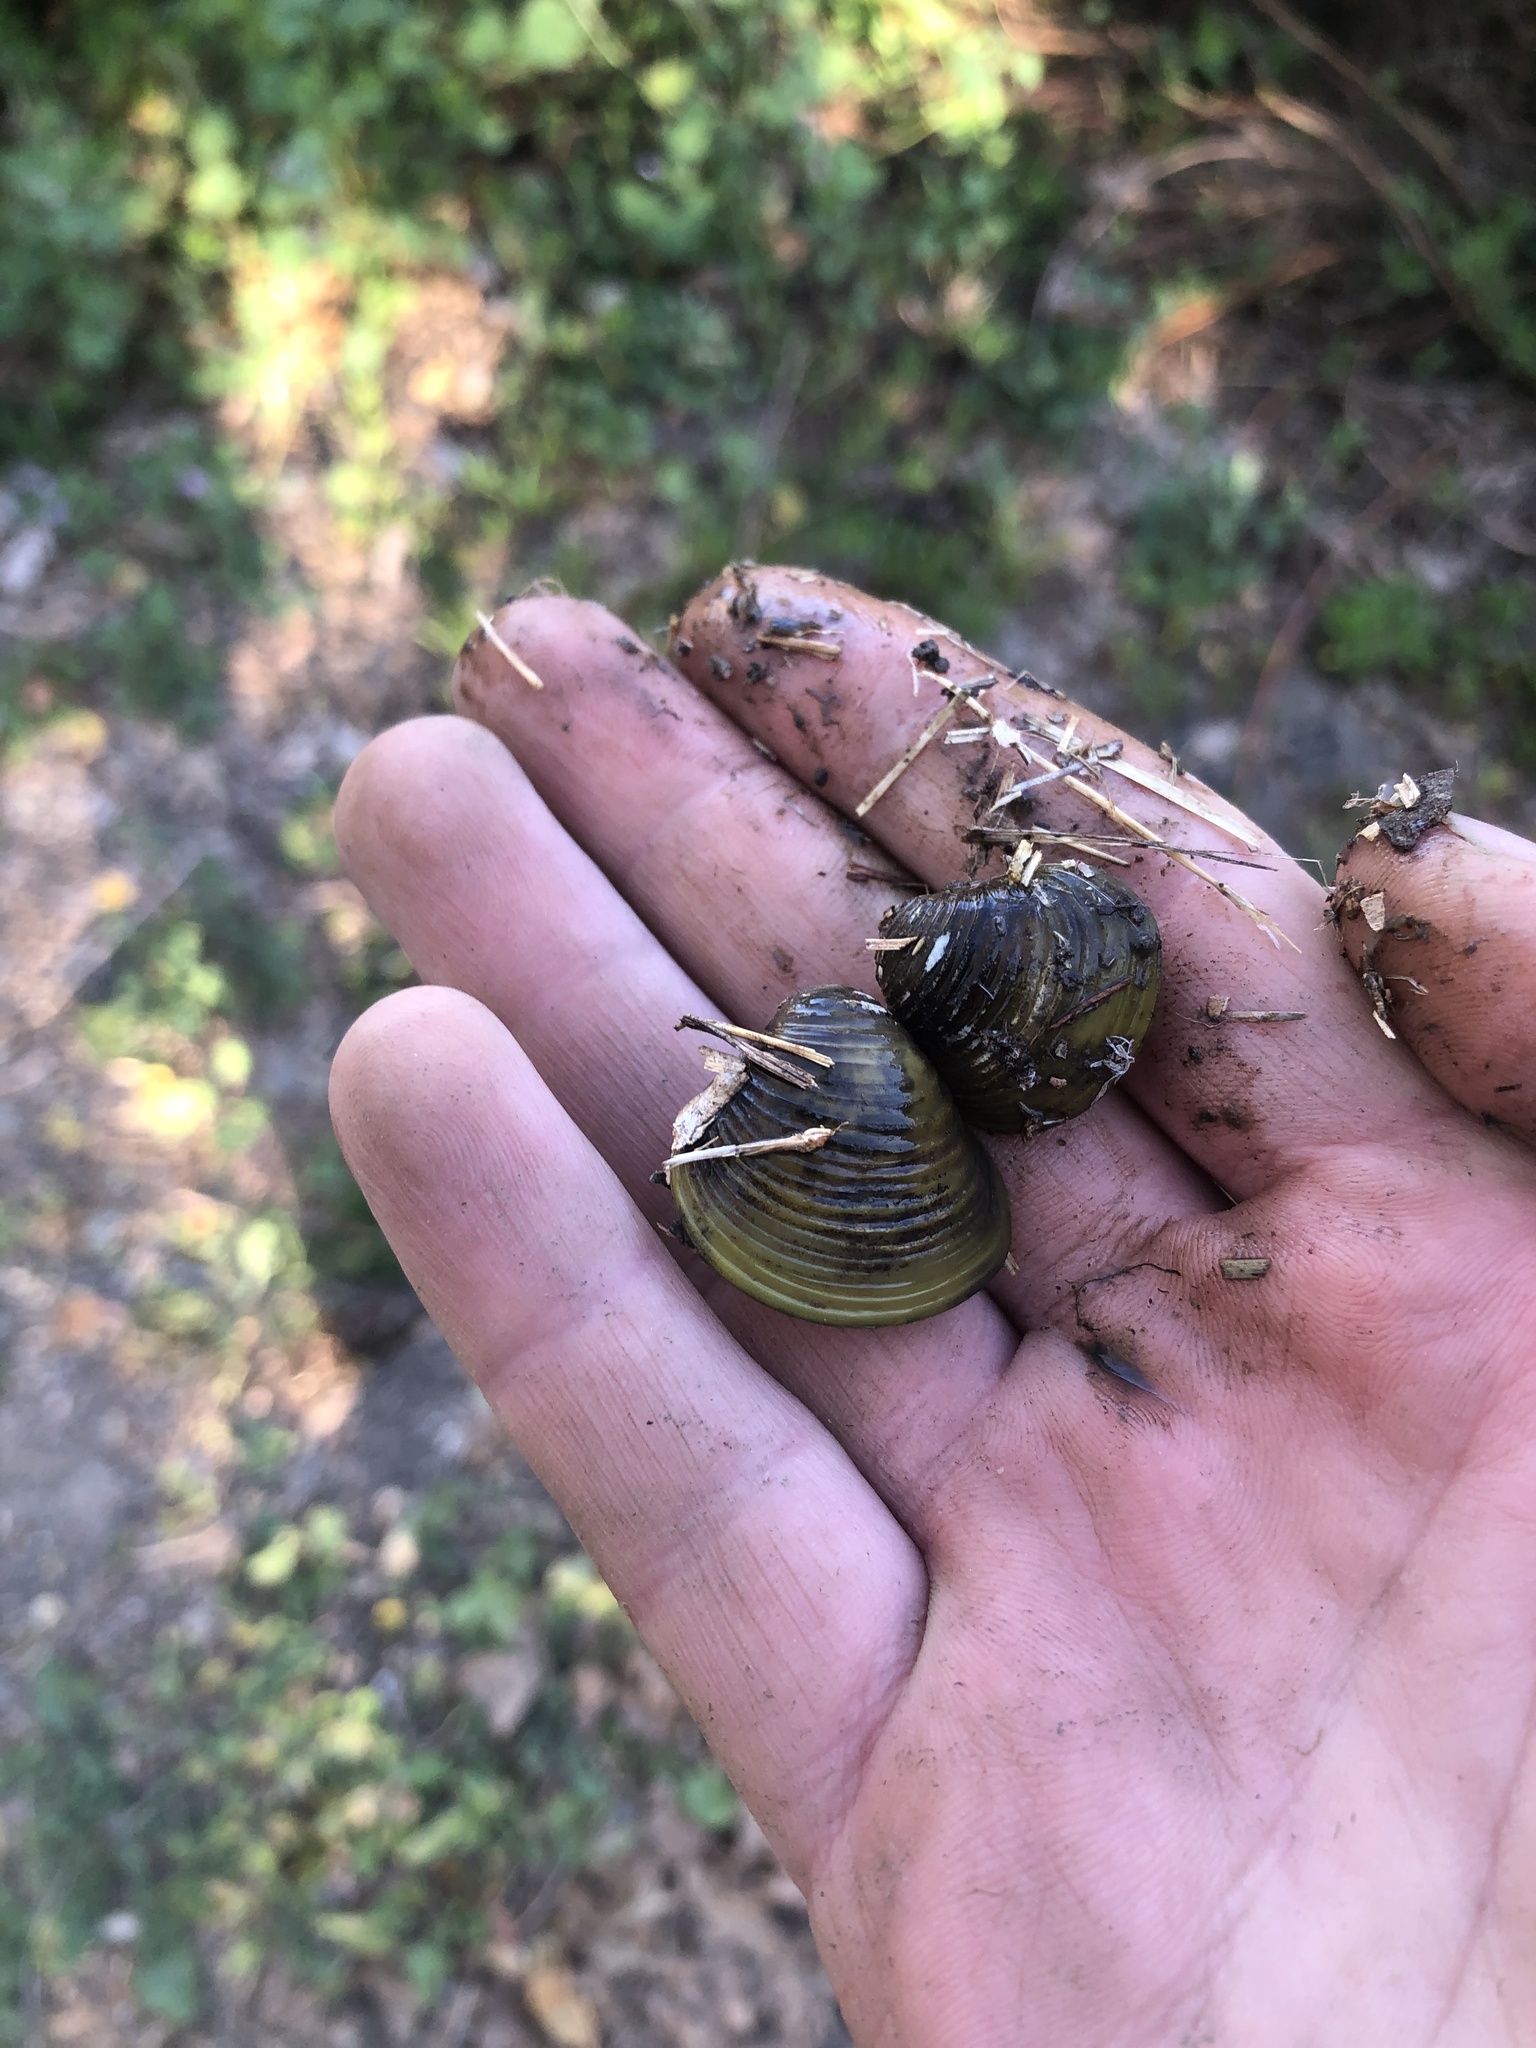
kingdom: Animalia
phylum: Mollusca
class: Bivalvia
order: Venerida
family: Cyrenidae
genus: Corbicula
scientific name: Corbicula fluminea
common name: Asian clam
